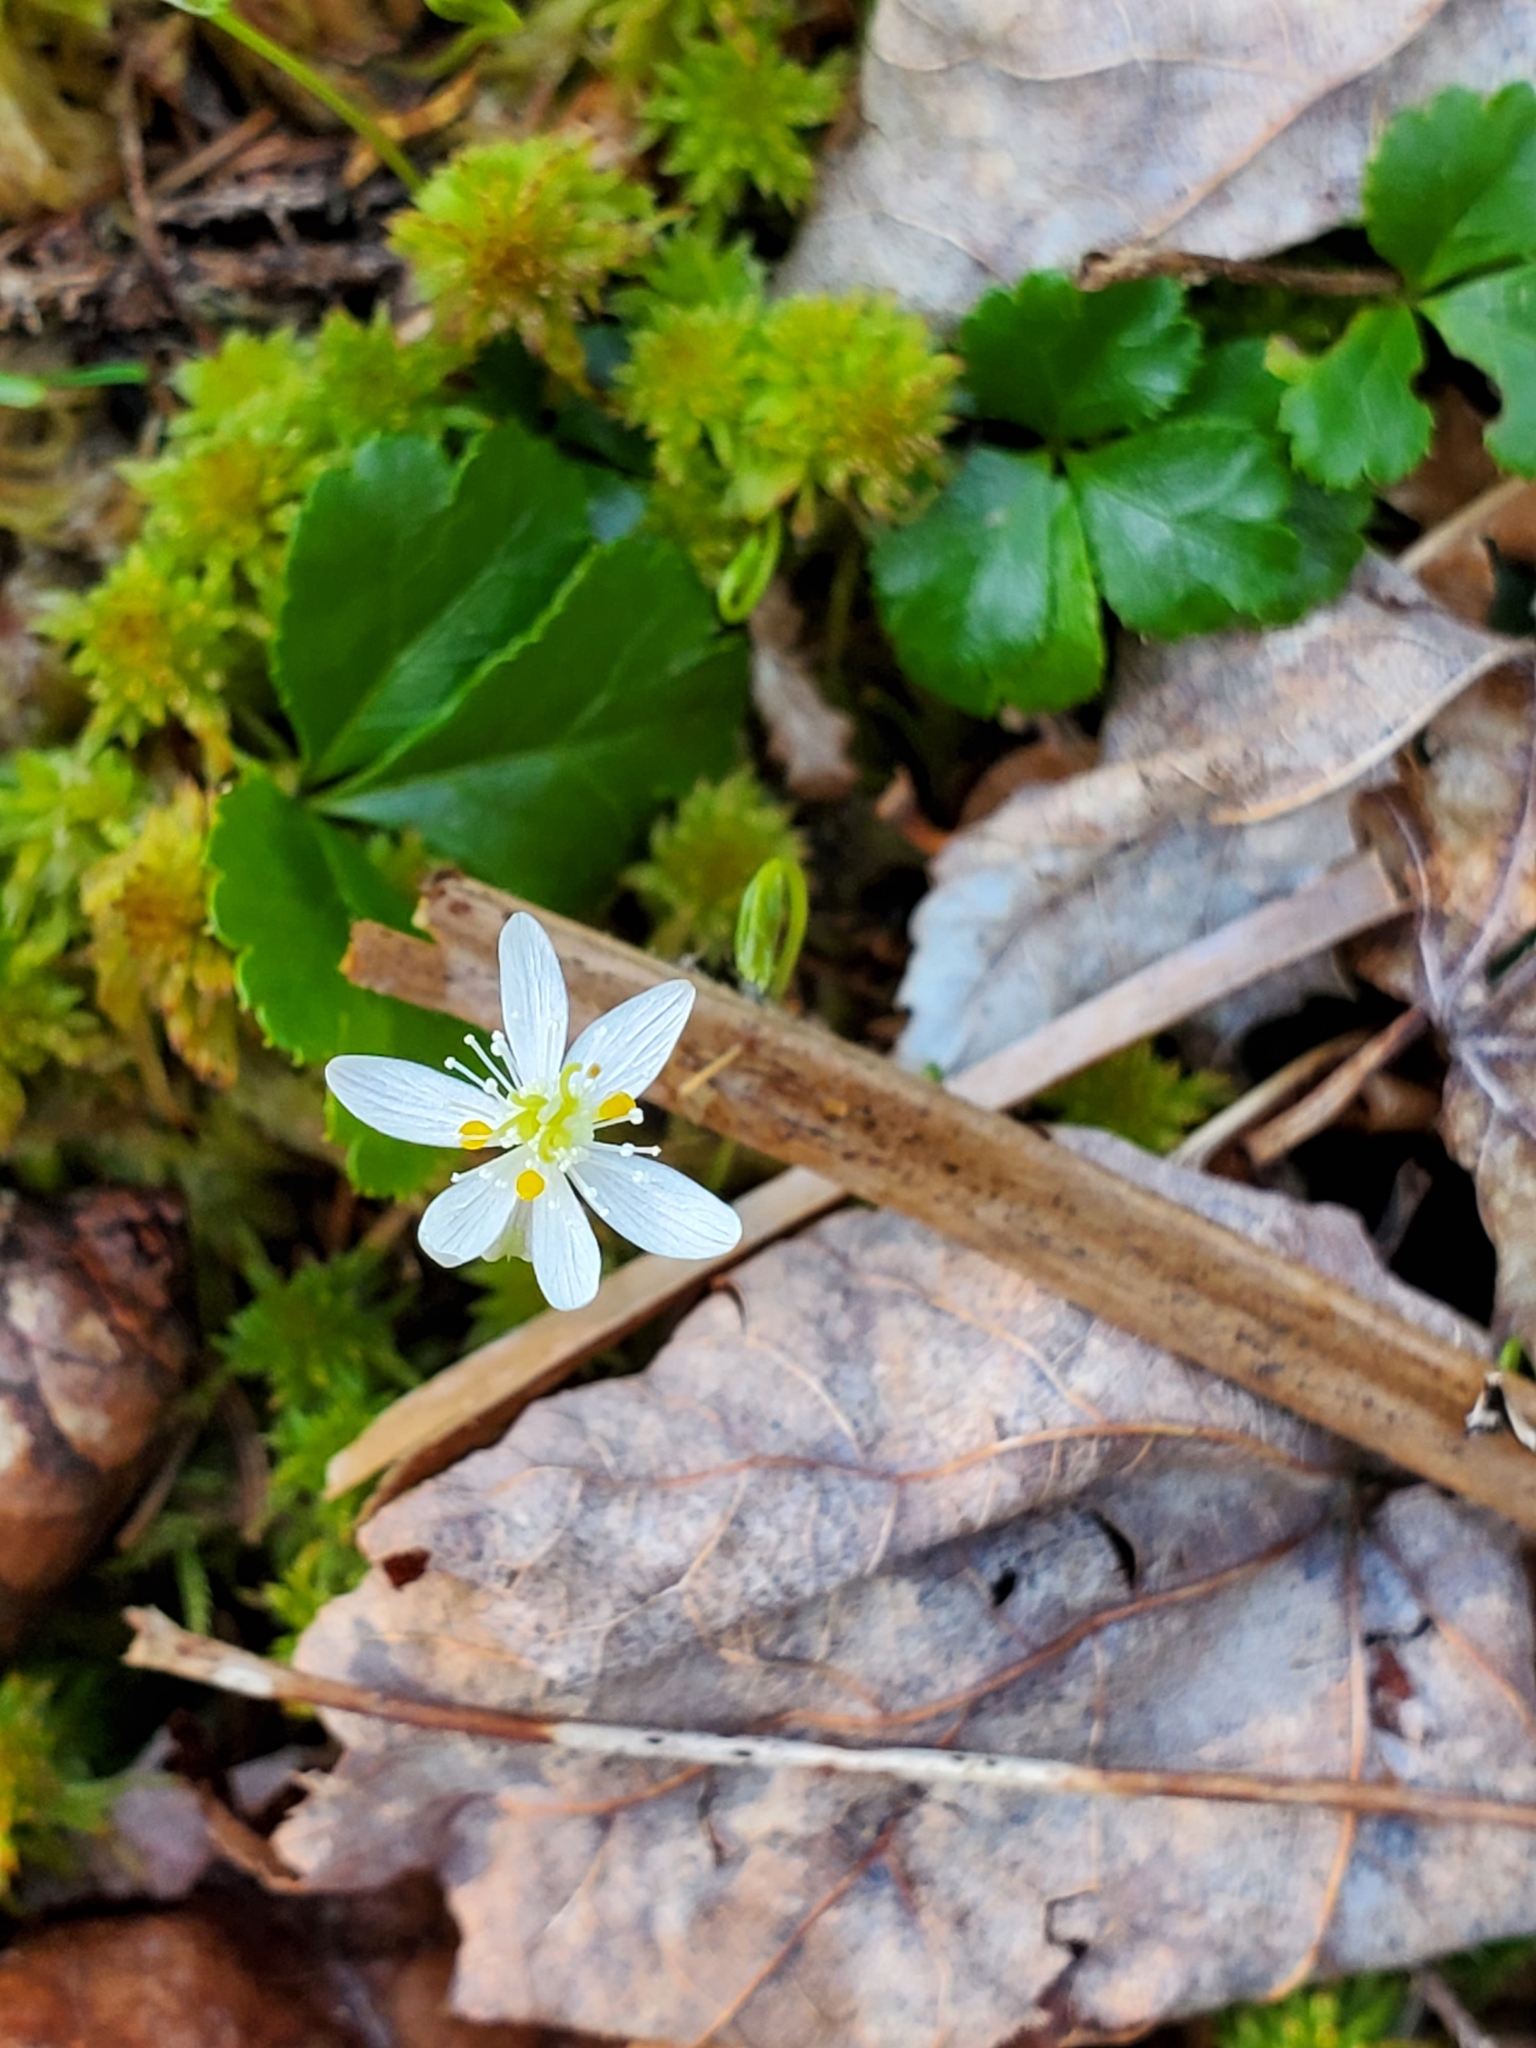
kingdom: Plantae
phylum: Tracheophyta
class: Magnoliopsida
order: Ranunculales
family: Ranunculaceae
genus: Coptis
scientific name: Coptis trifolia
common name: Canker-root
